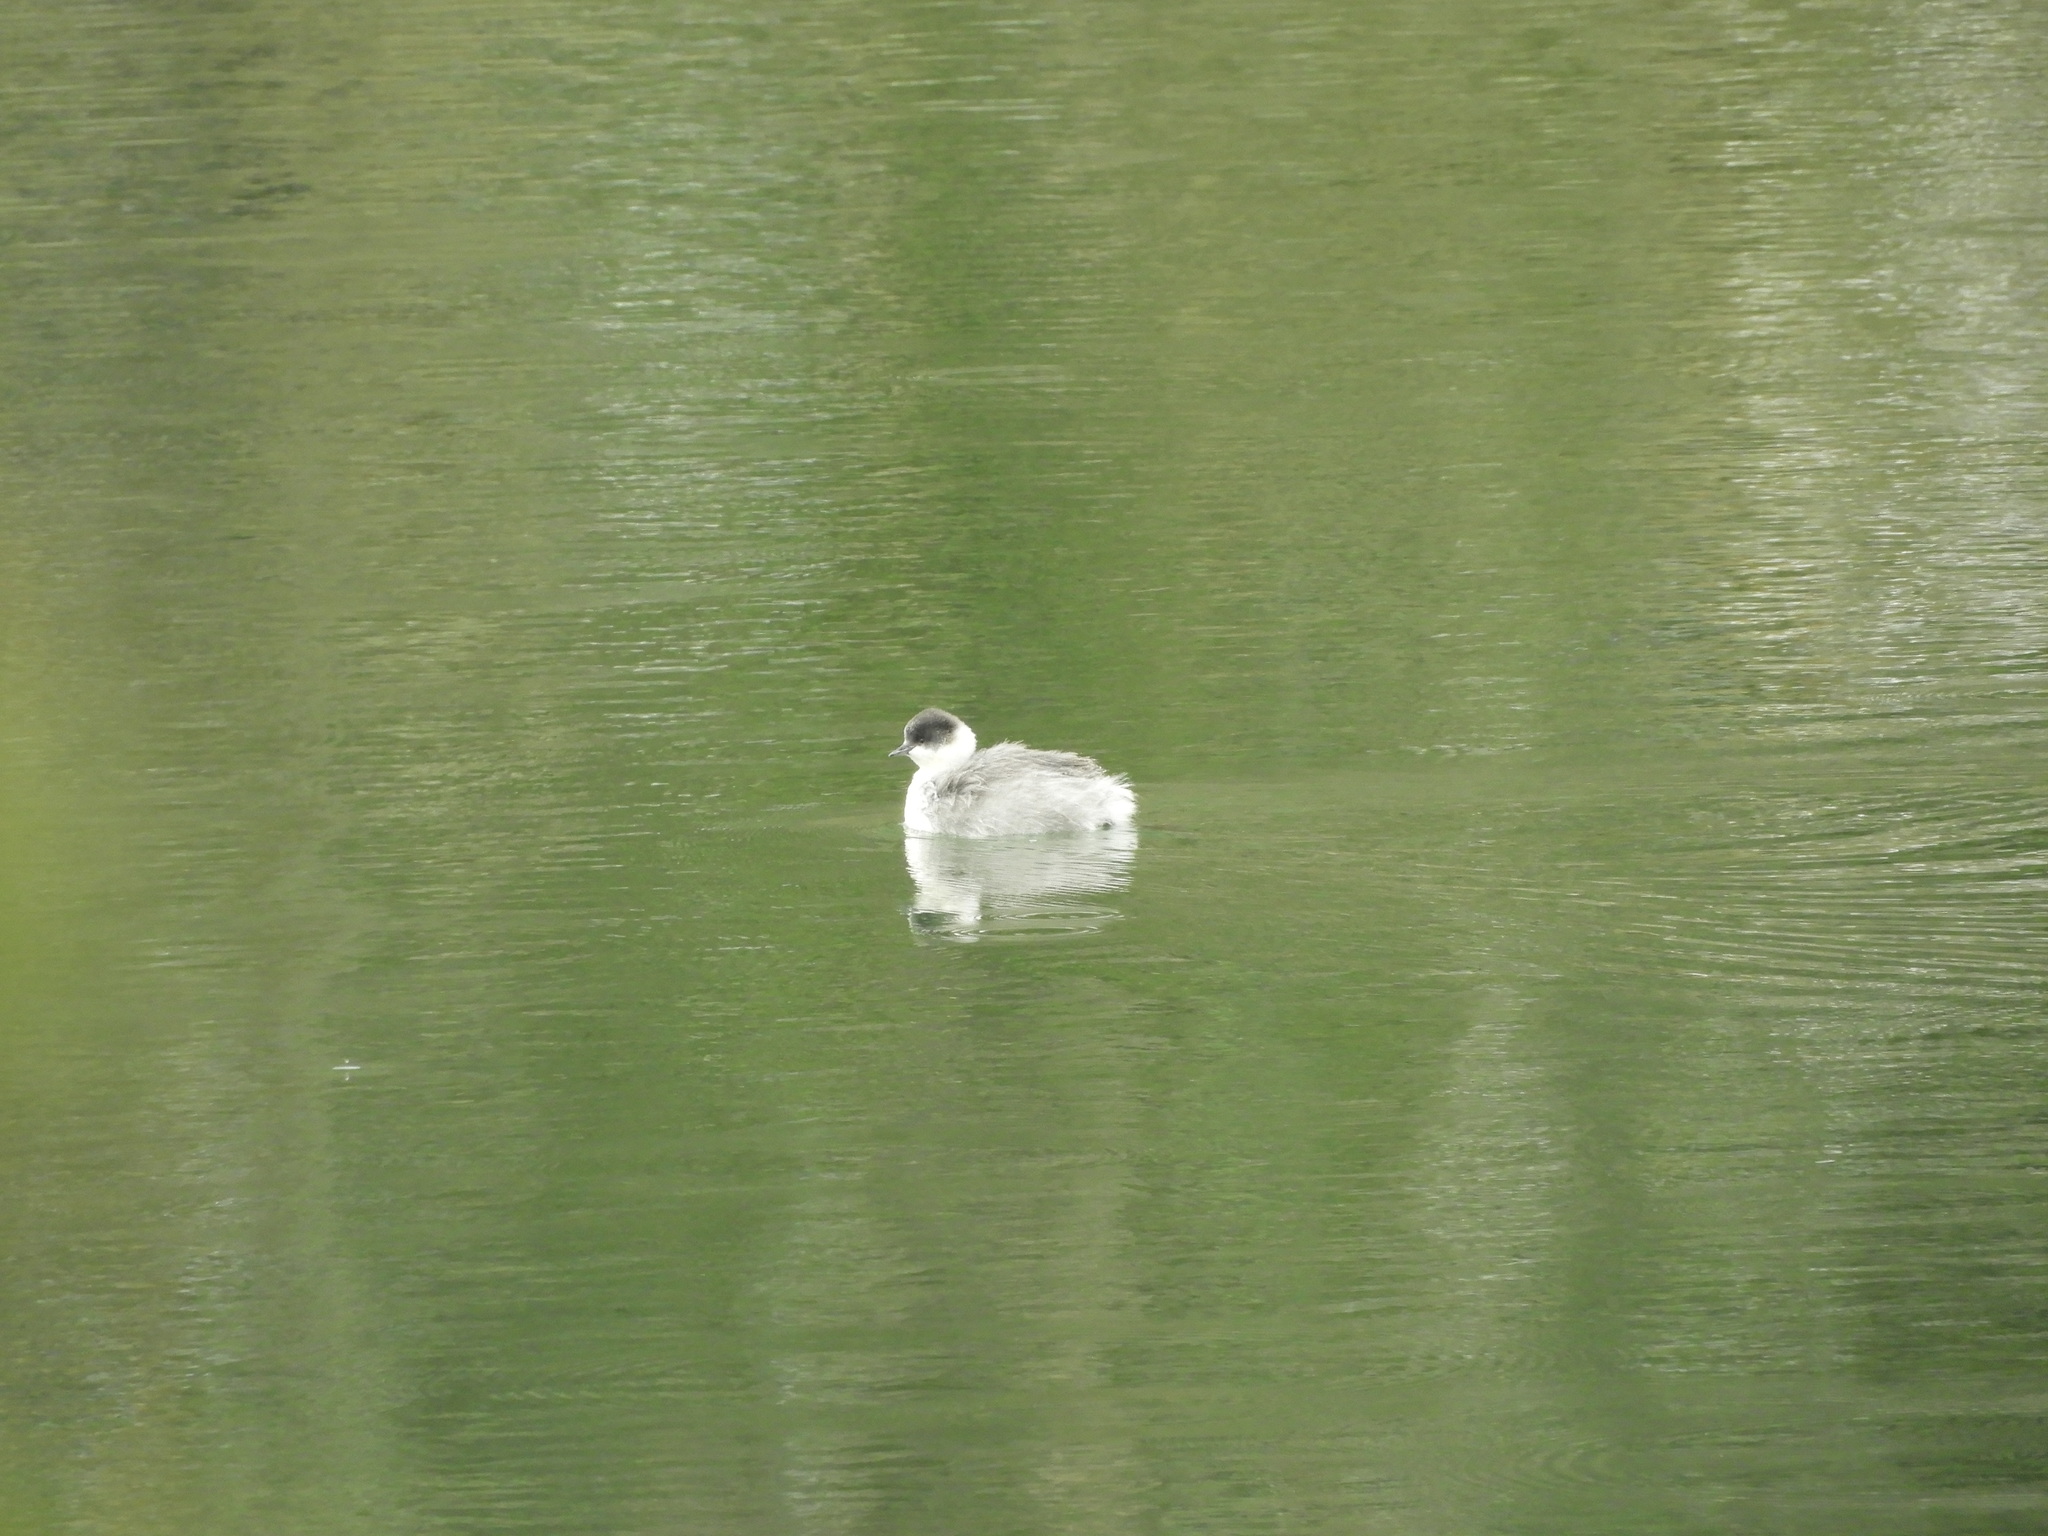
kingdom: Animalia
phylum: Chordata
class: Aves
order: Podicipediformes
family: Podicipedidae
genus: Podiceps
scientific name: Podiceps occipitalis
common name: Silvery grebe
